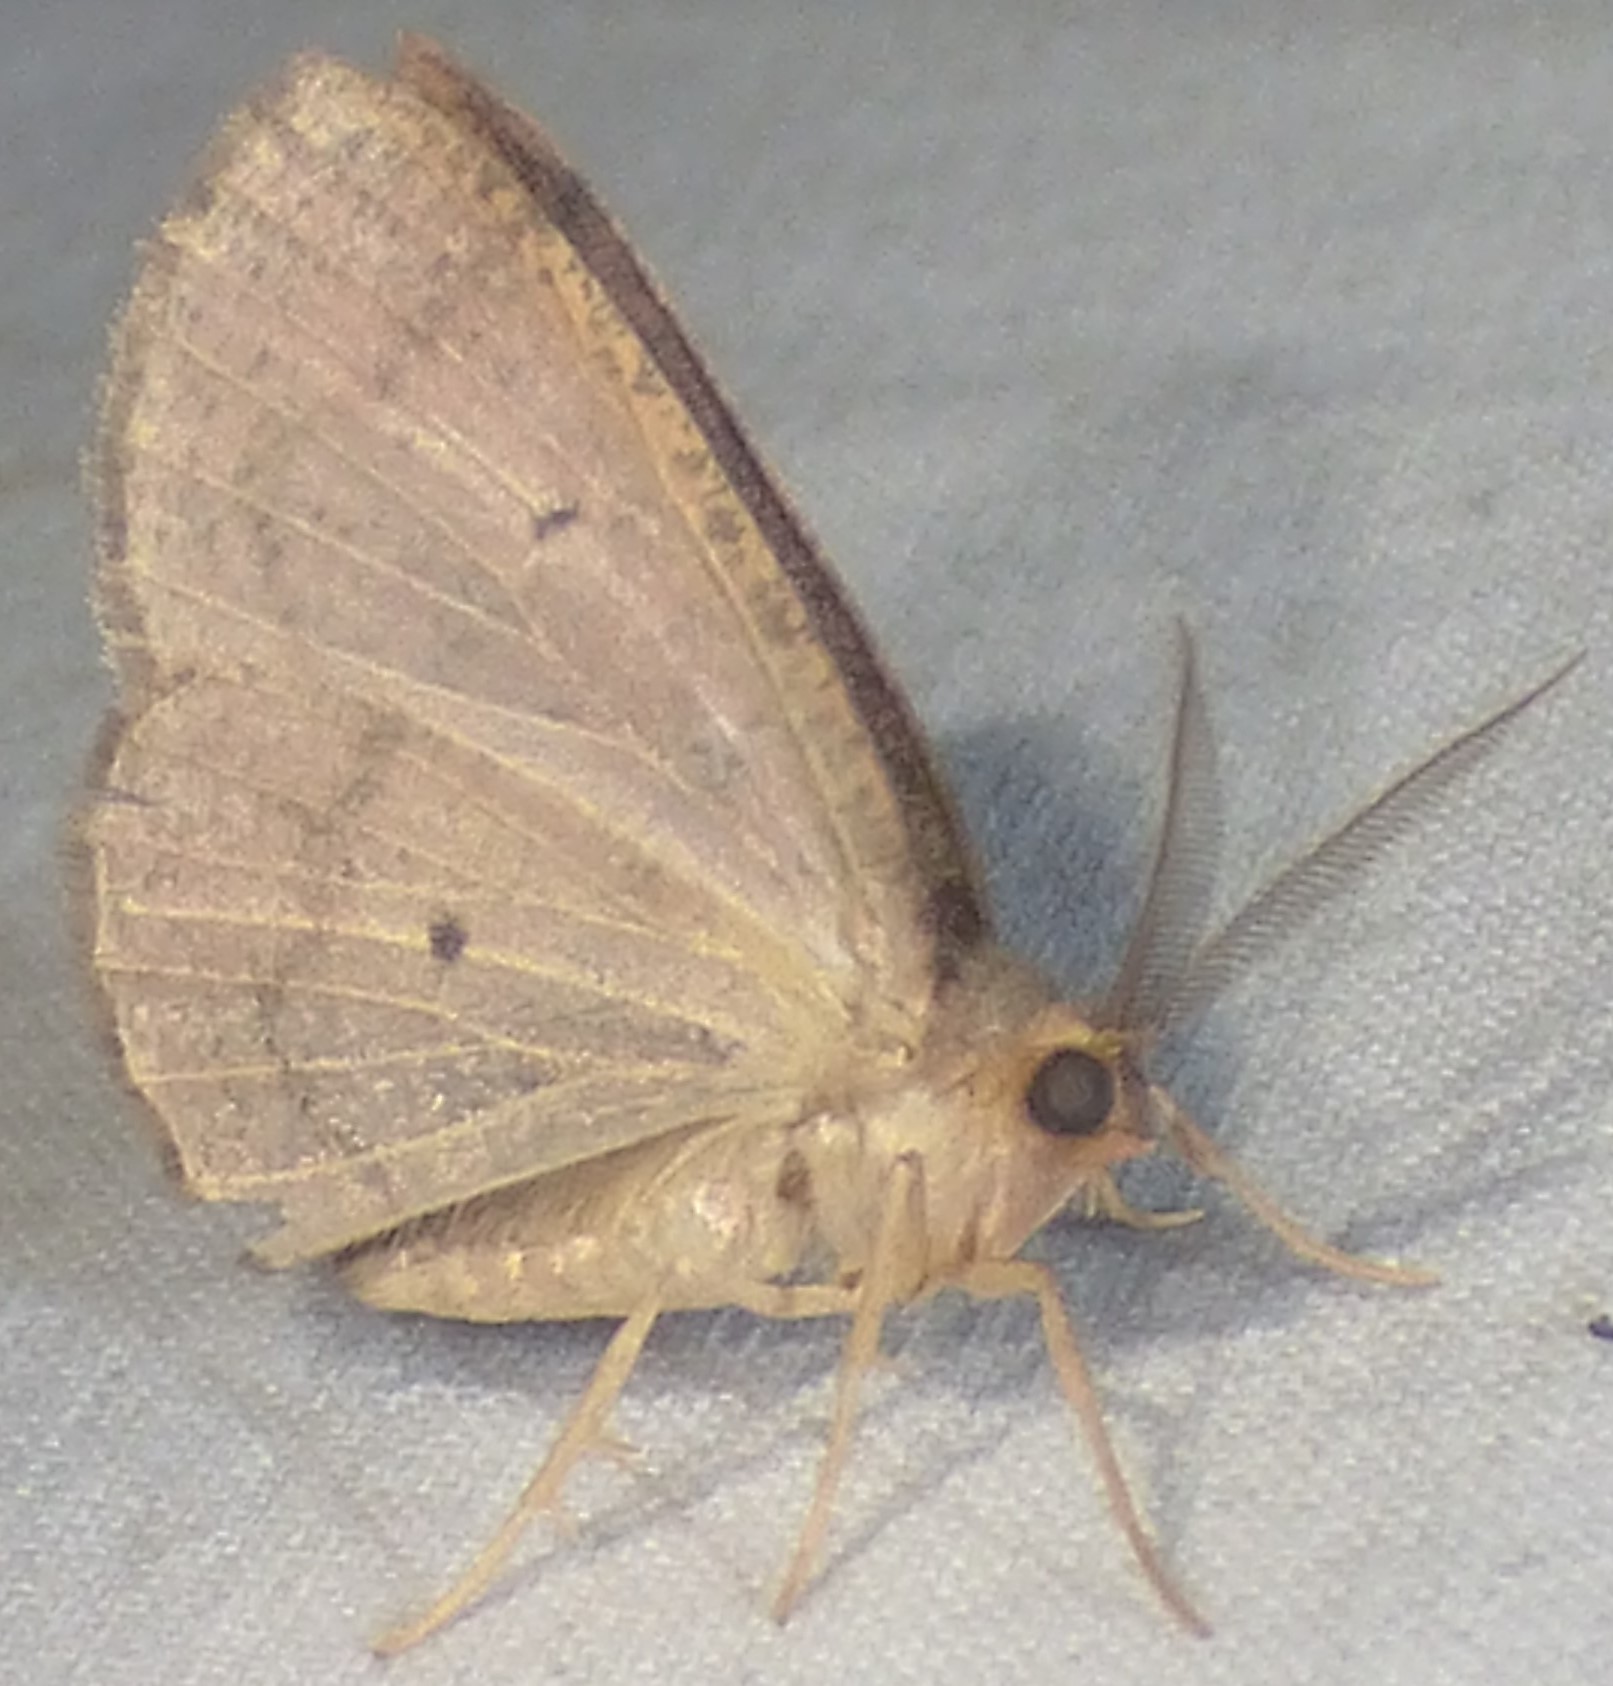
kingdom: Animalia
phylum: Arthropoda
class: Insecta
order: Lepidoptera
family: Geometridae
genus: Ilexia
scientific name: Ilexia intractata
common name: Black-dotted ruddy moth
